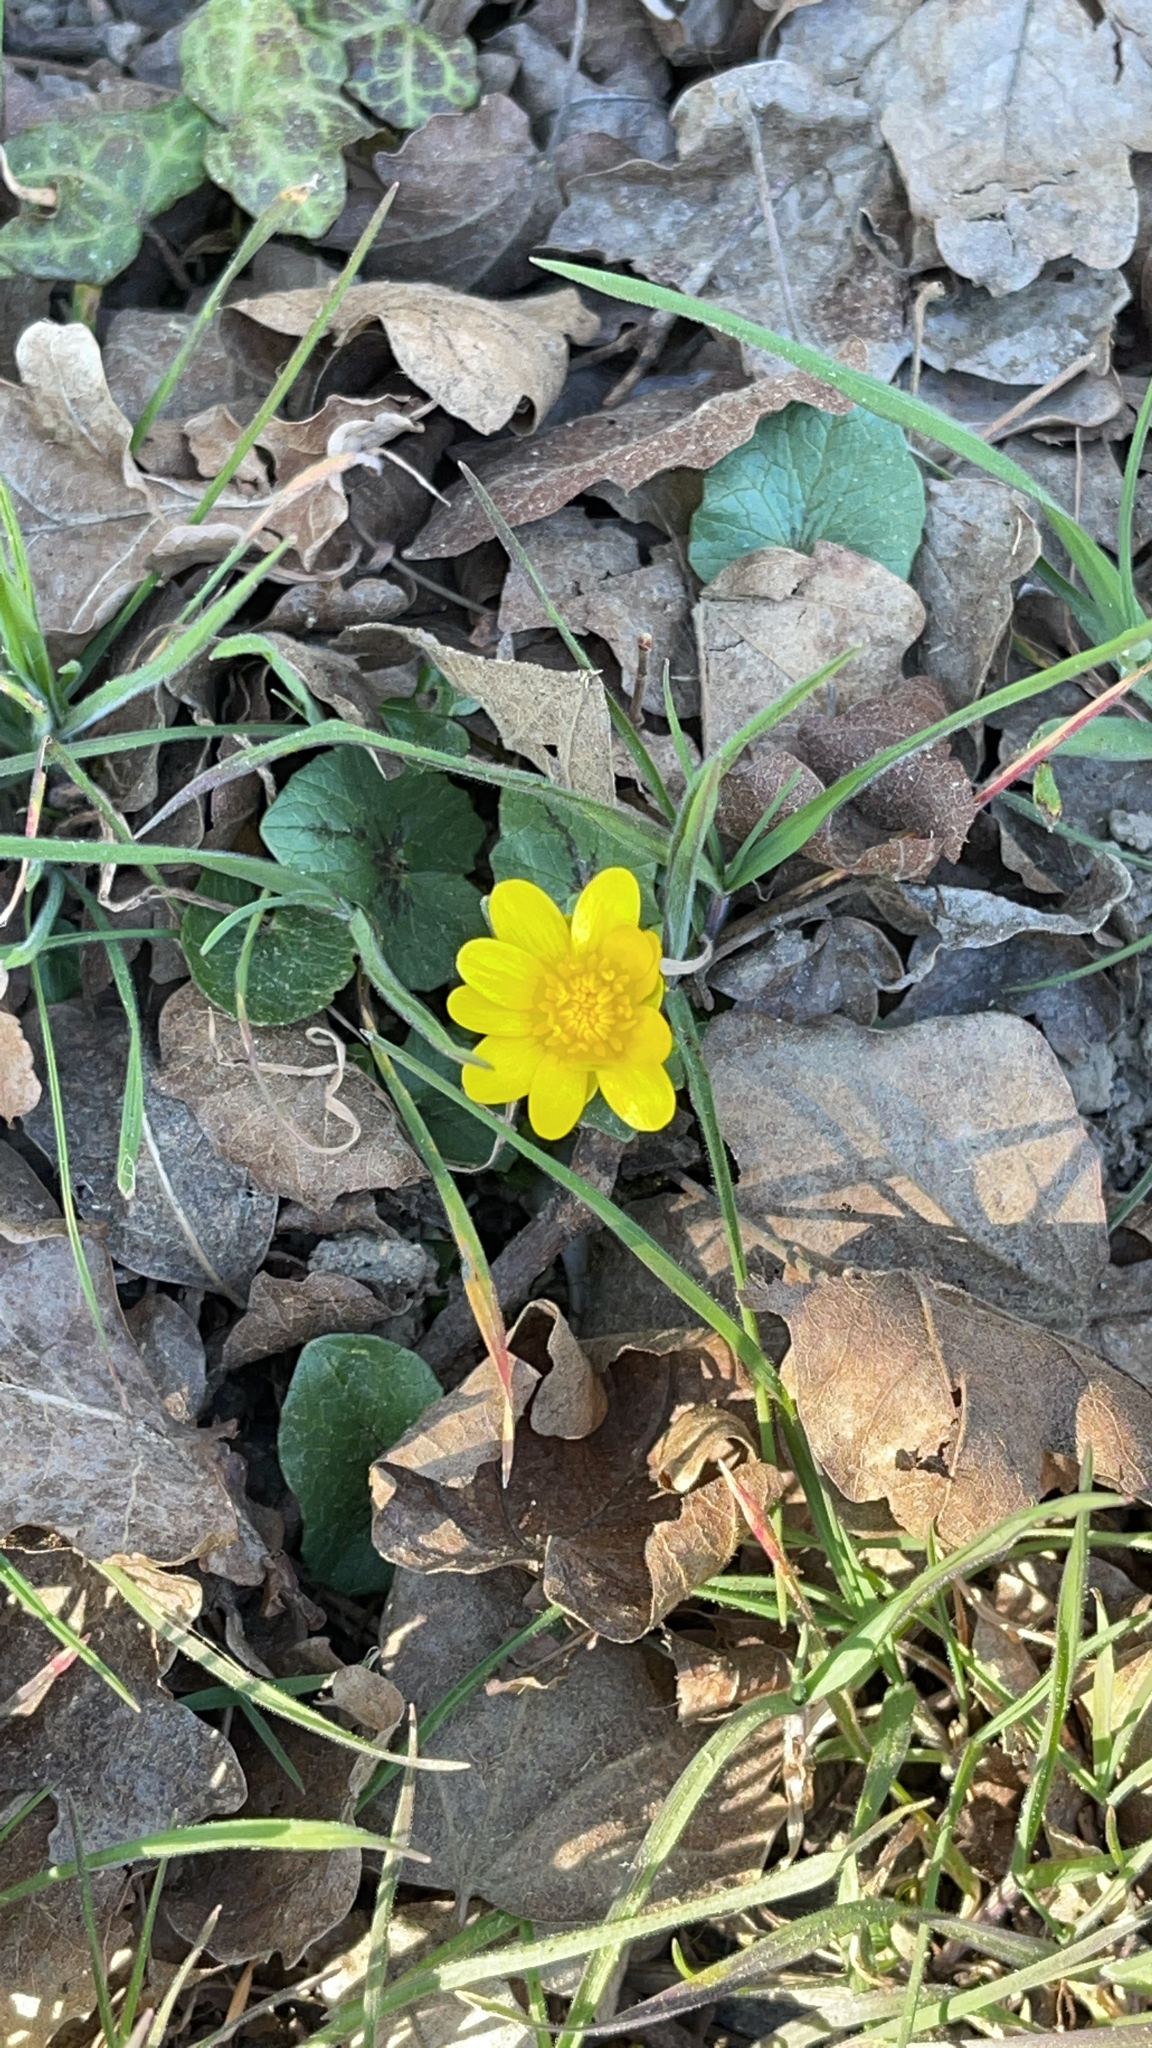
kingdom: Plantae
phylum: Tracheophyta
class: Magnoliopsida
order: Ranunculales
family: Ranunculaceae
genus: Ficaria
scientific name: Ficaria verna
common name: Lesser celandine
